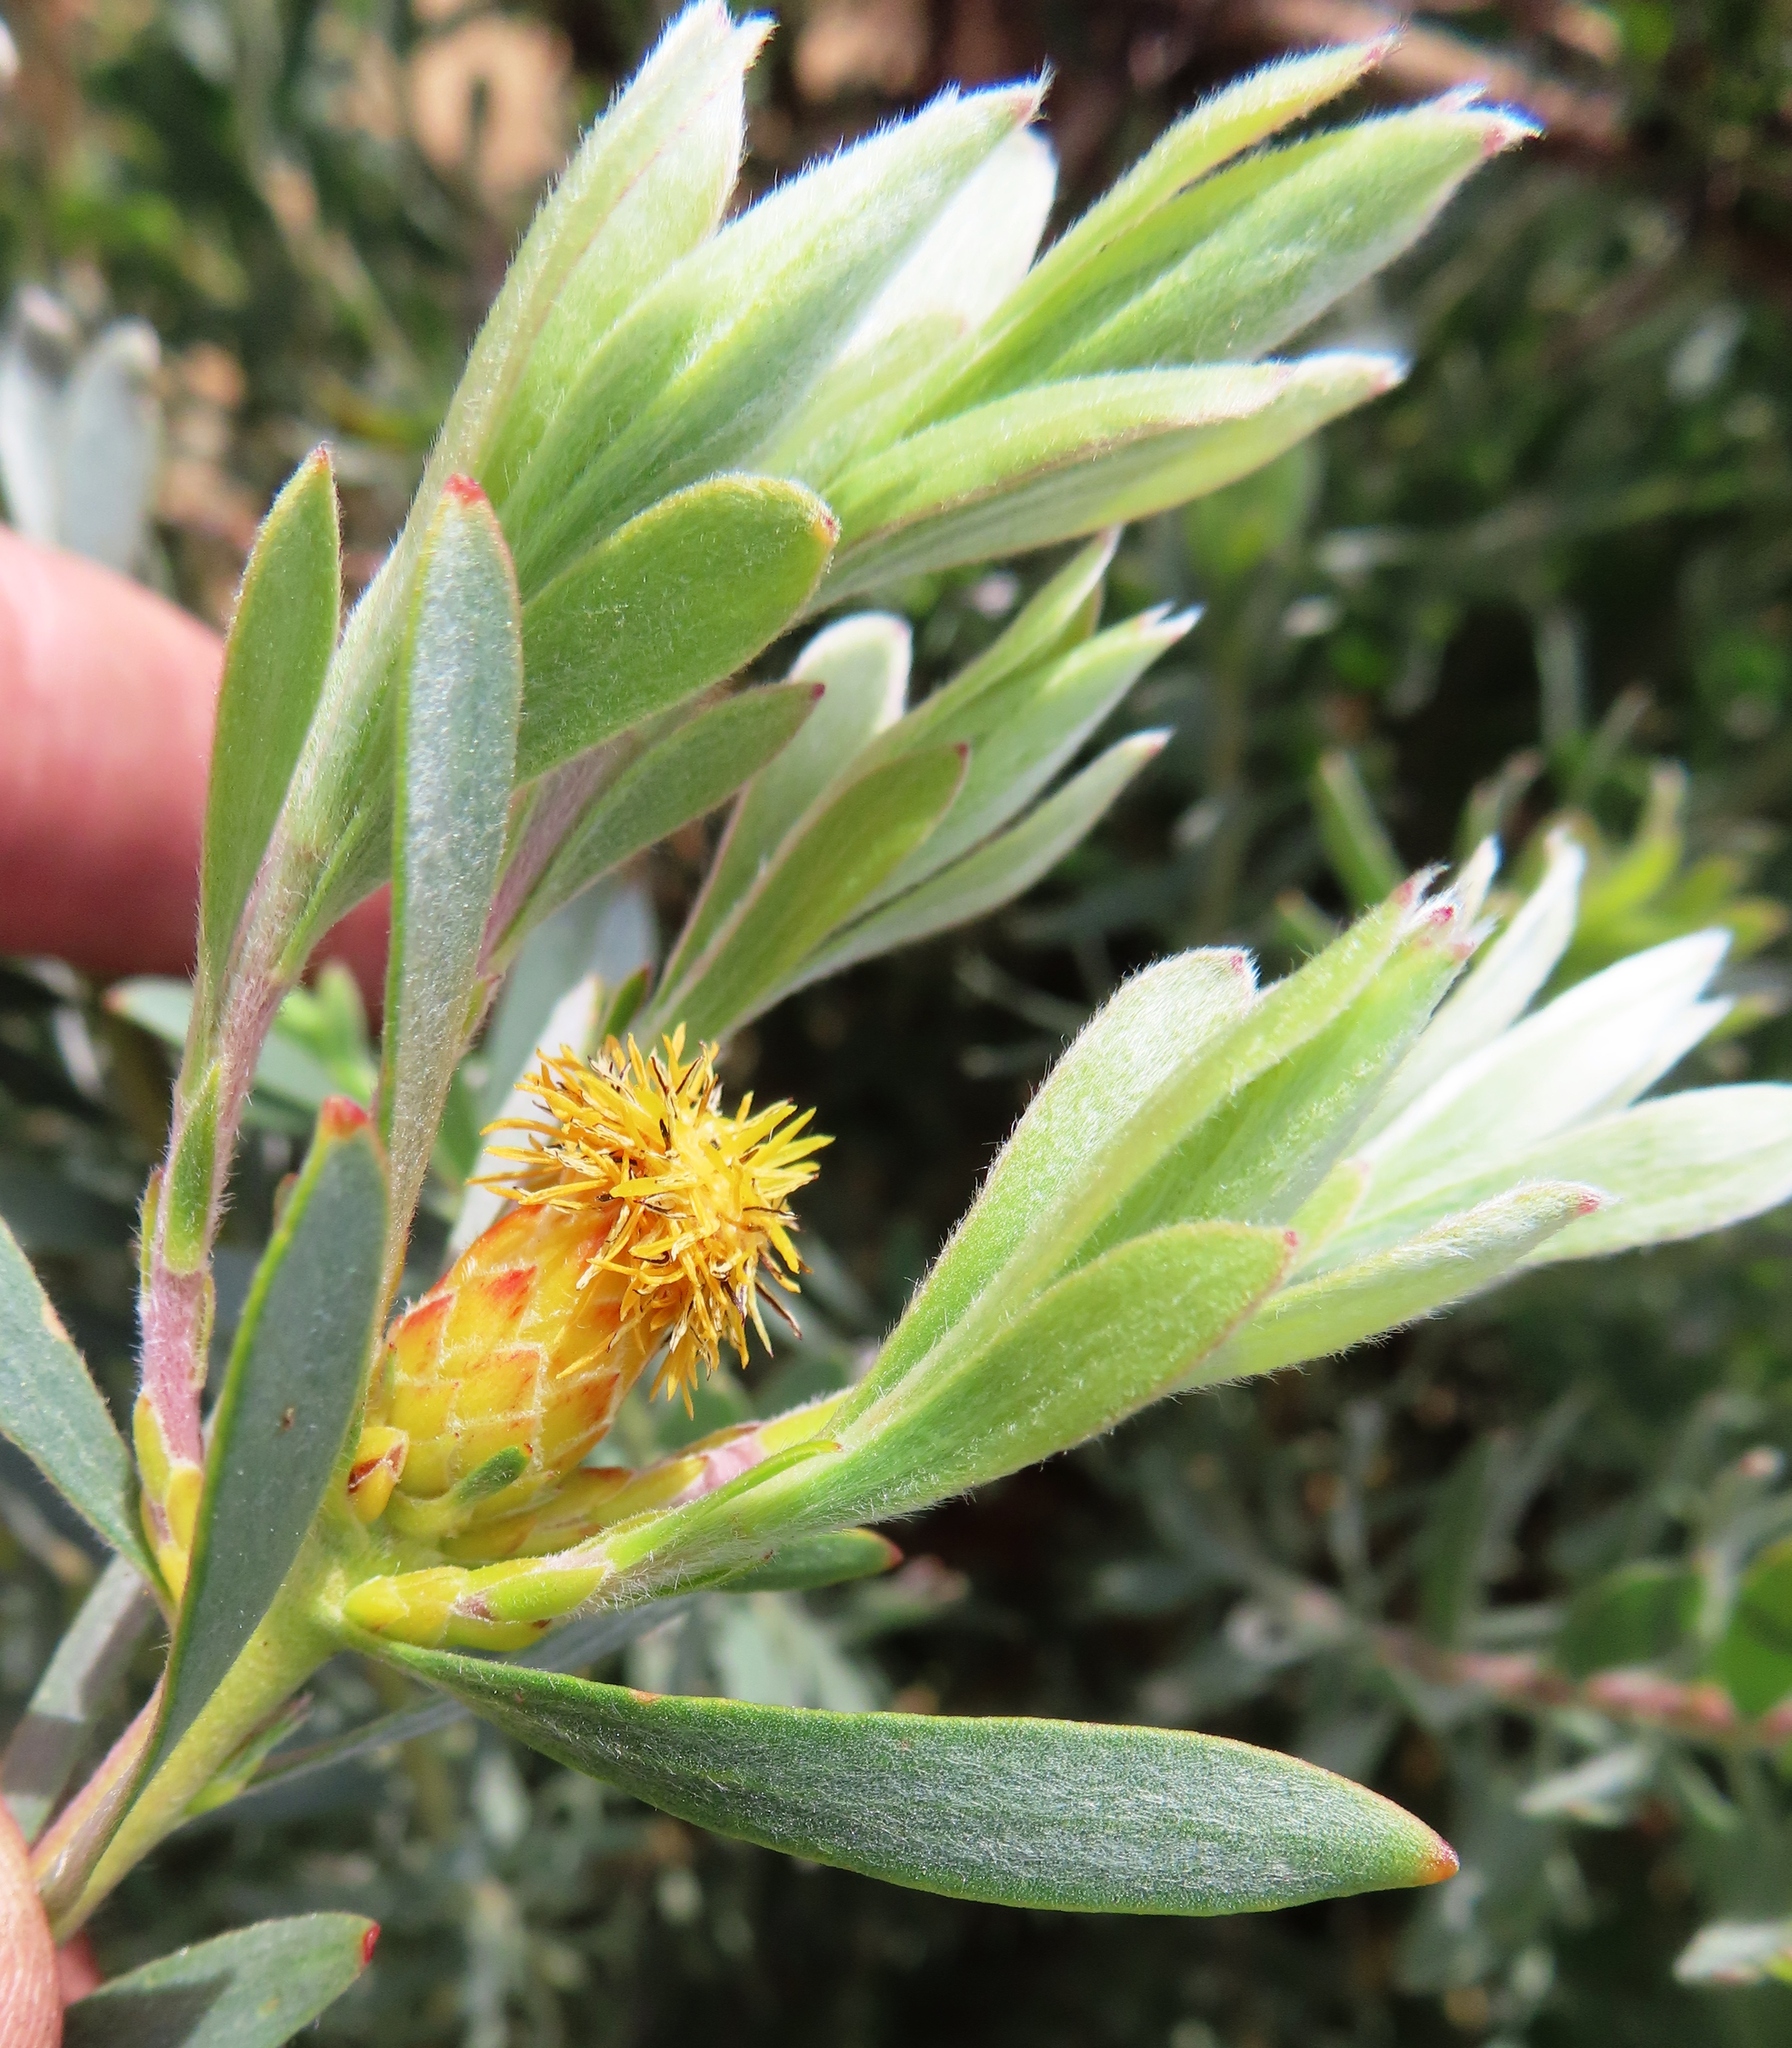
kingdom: Plantae
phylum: Tracheophyta
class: Magnoliopsida
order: Proteales
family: Proteaceae
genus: Leucadendron
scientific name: Leucadendron rubrum
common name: Spinning top
